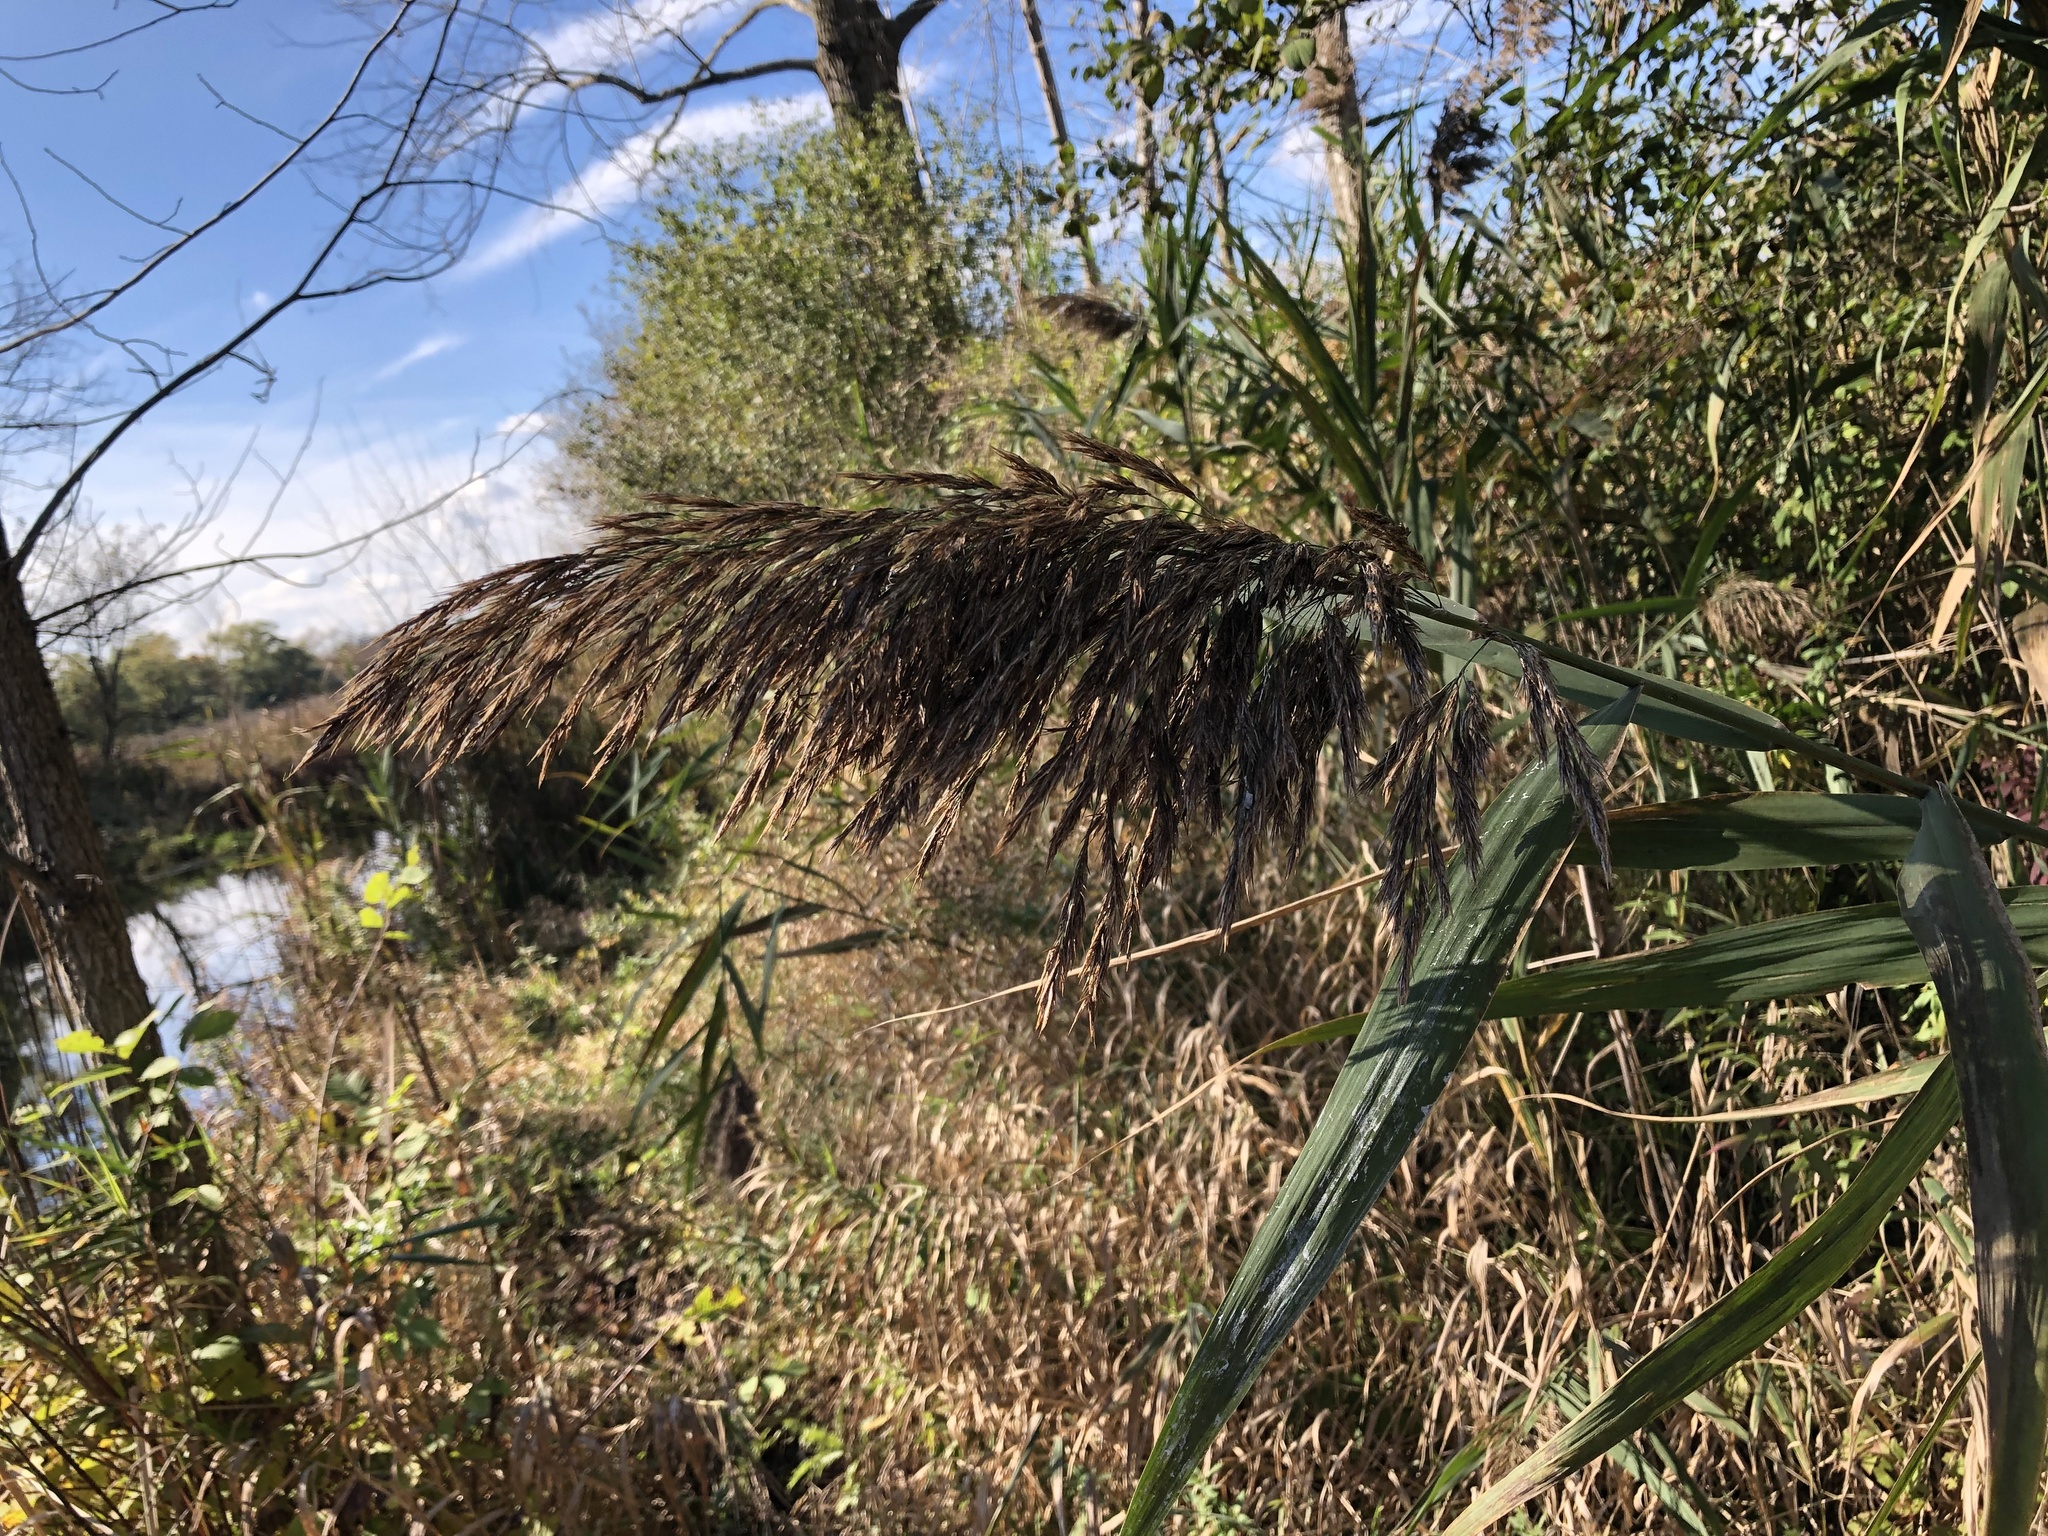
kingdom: Plantae
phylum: Tracheophyta
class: Liliopsida
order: Poales
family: Poaceae
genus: Phragmites
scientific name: Phragmites australis
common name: Common reed
